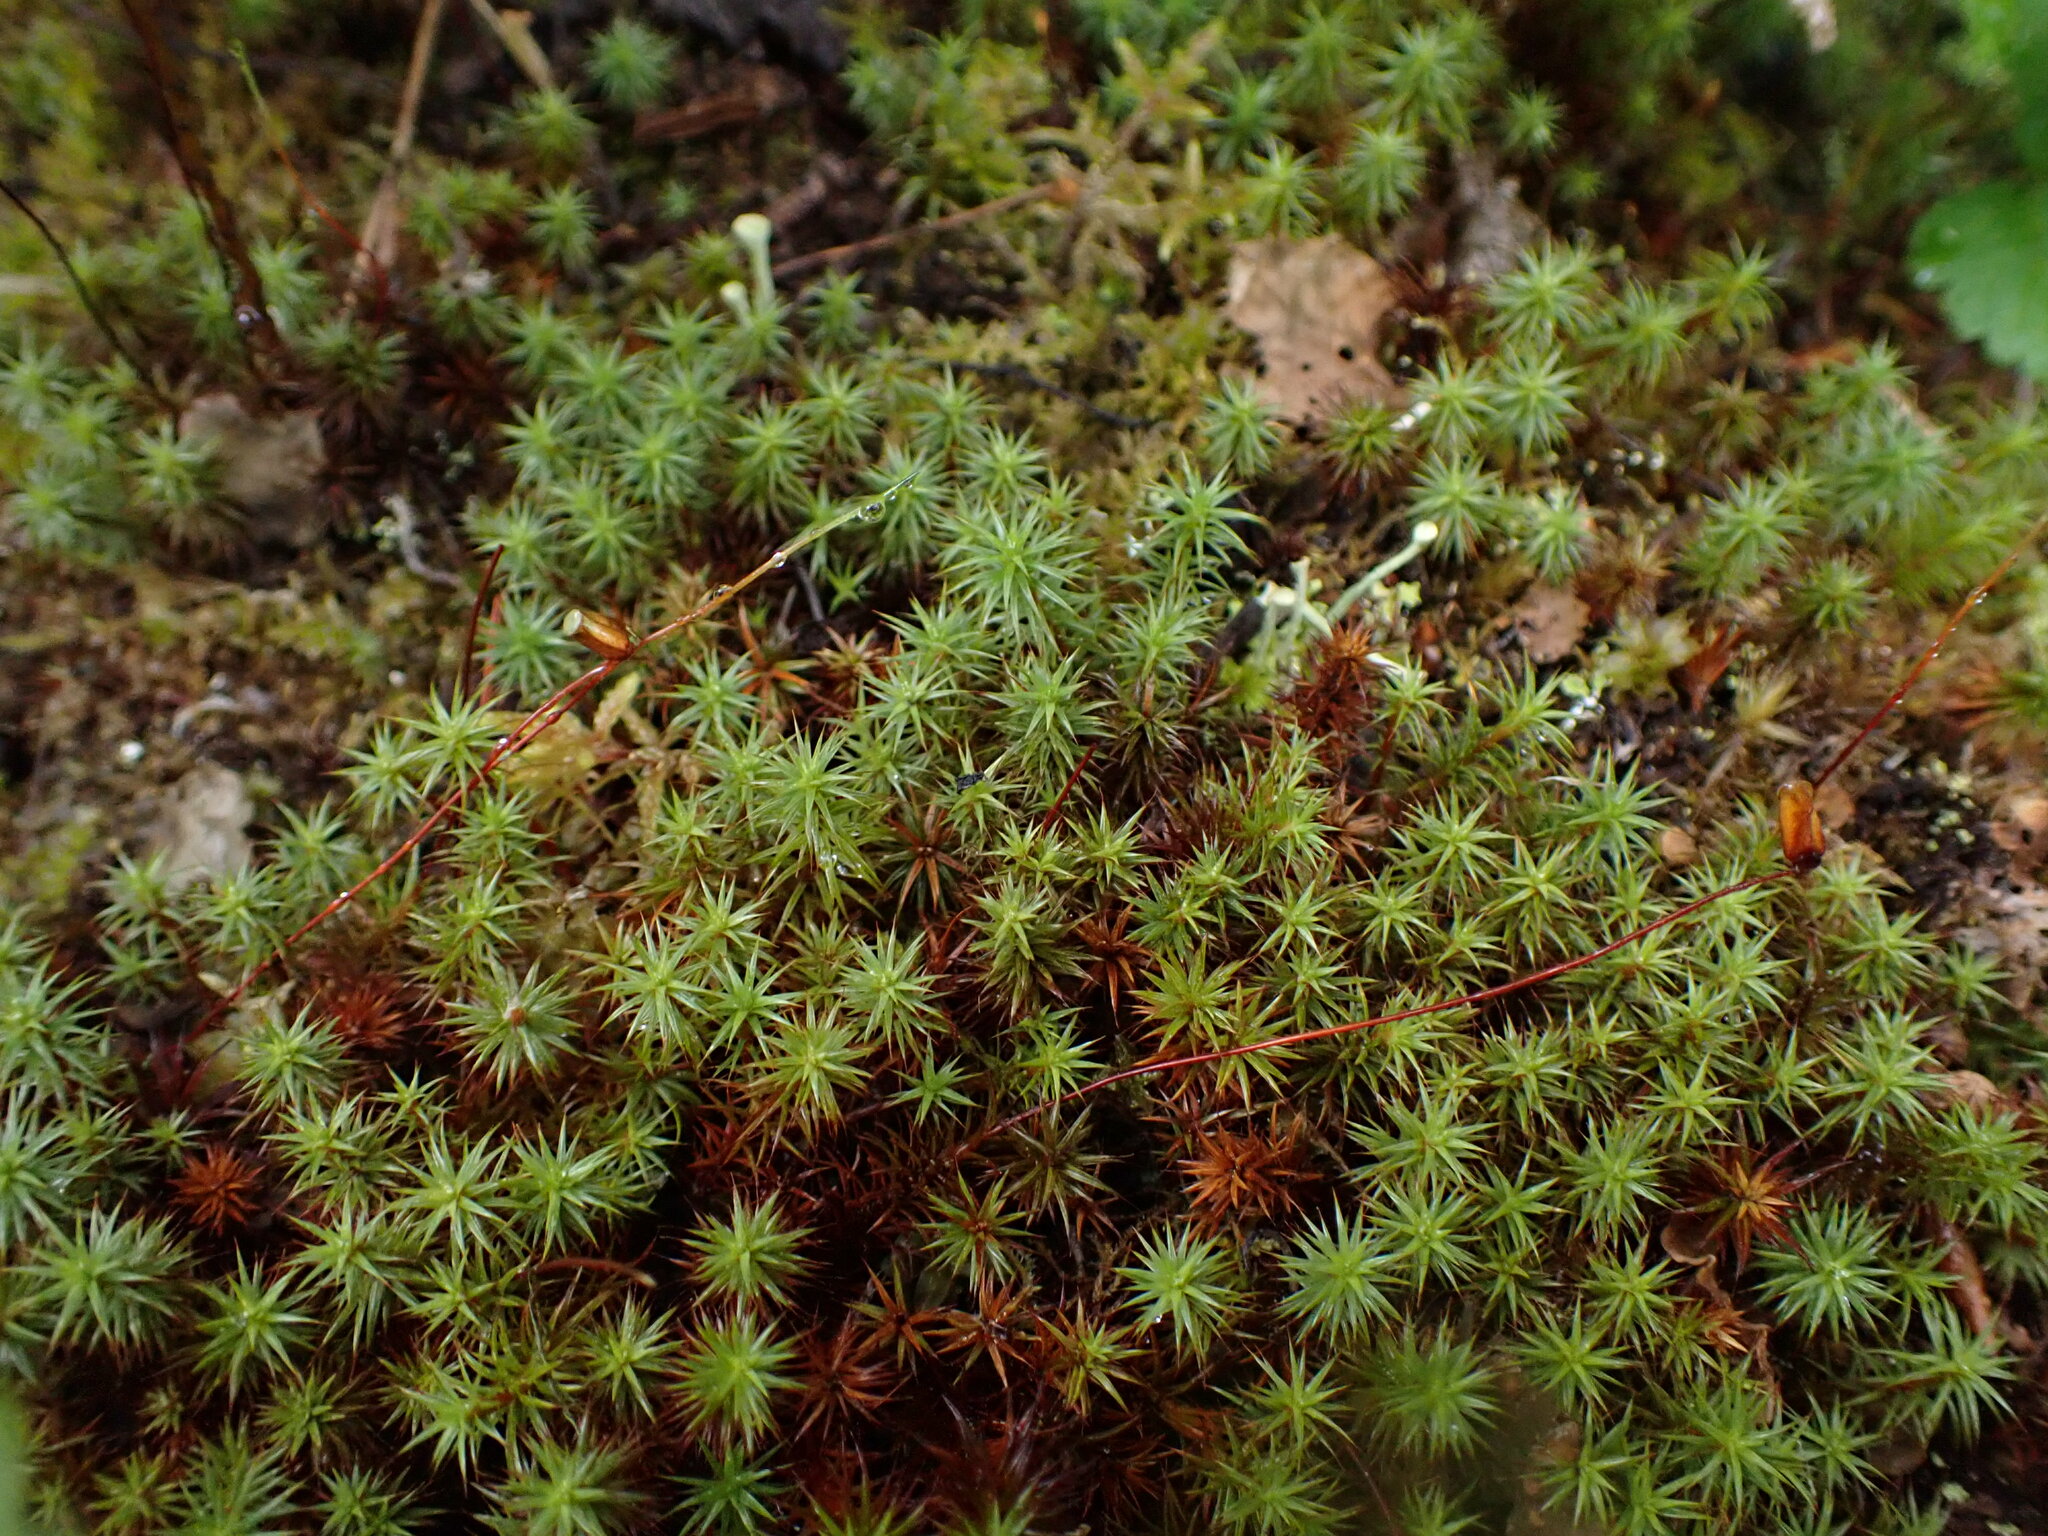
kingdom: Plantae
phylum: Bryophyta
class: Polytrichopsida
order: Polytrichales
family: Polytrichaceae
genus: Polytrichum
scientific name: Polytrichum juniperinum
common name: Juniper haircap moss
